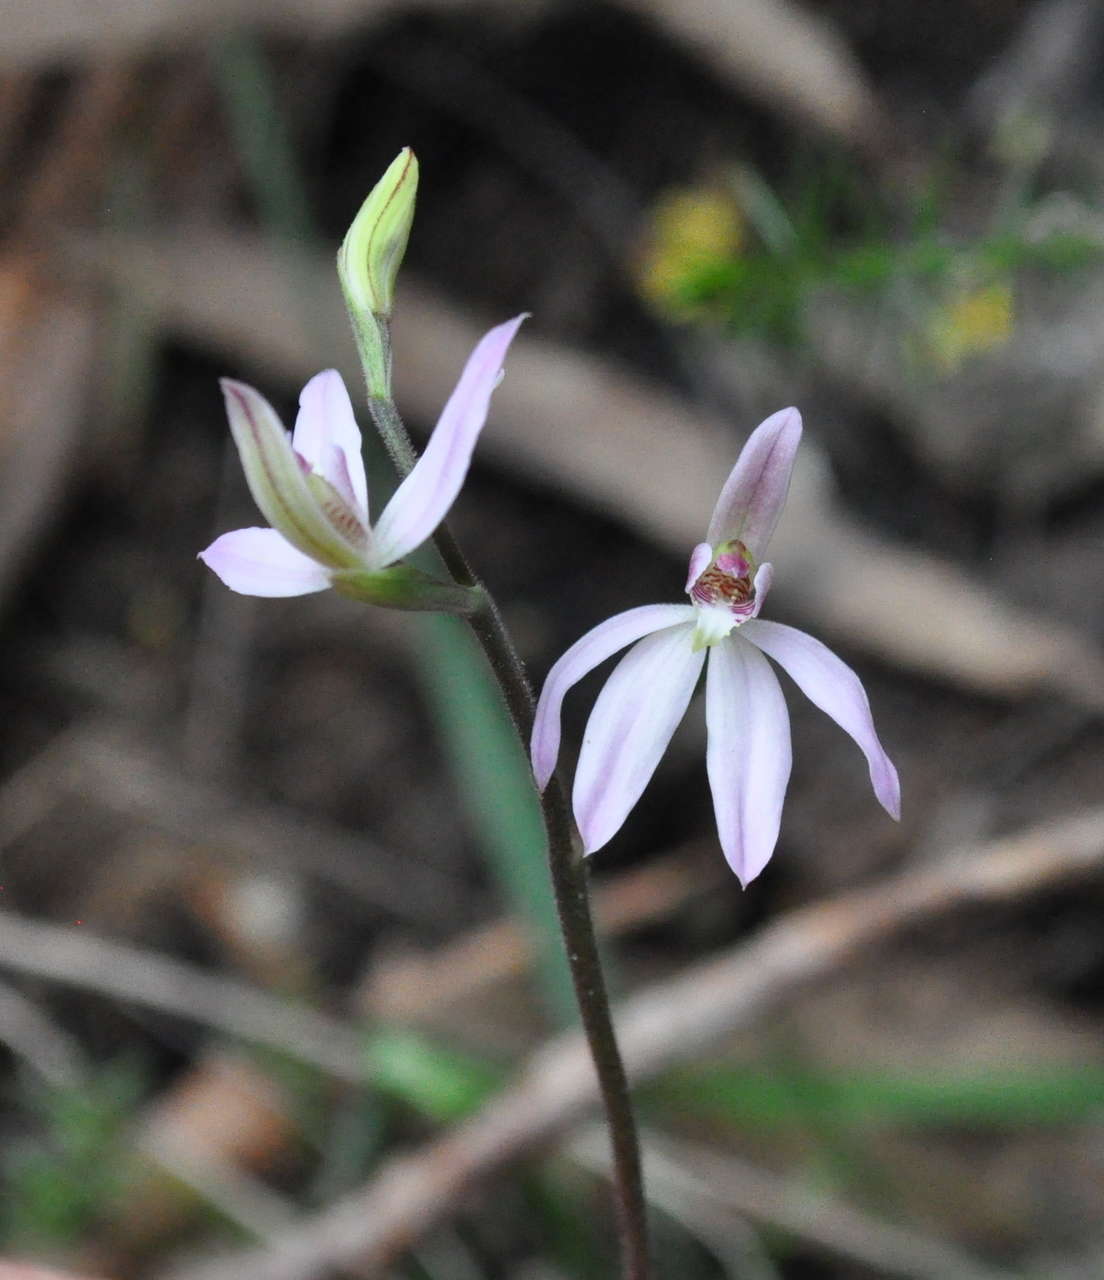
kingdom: Plantae
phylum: Tracheophyta
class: Liliopsida
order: Asparagales
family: Orchidaceae
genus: Caladenia
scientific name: Caladenia carnea
